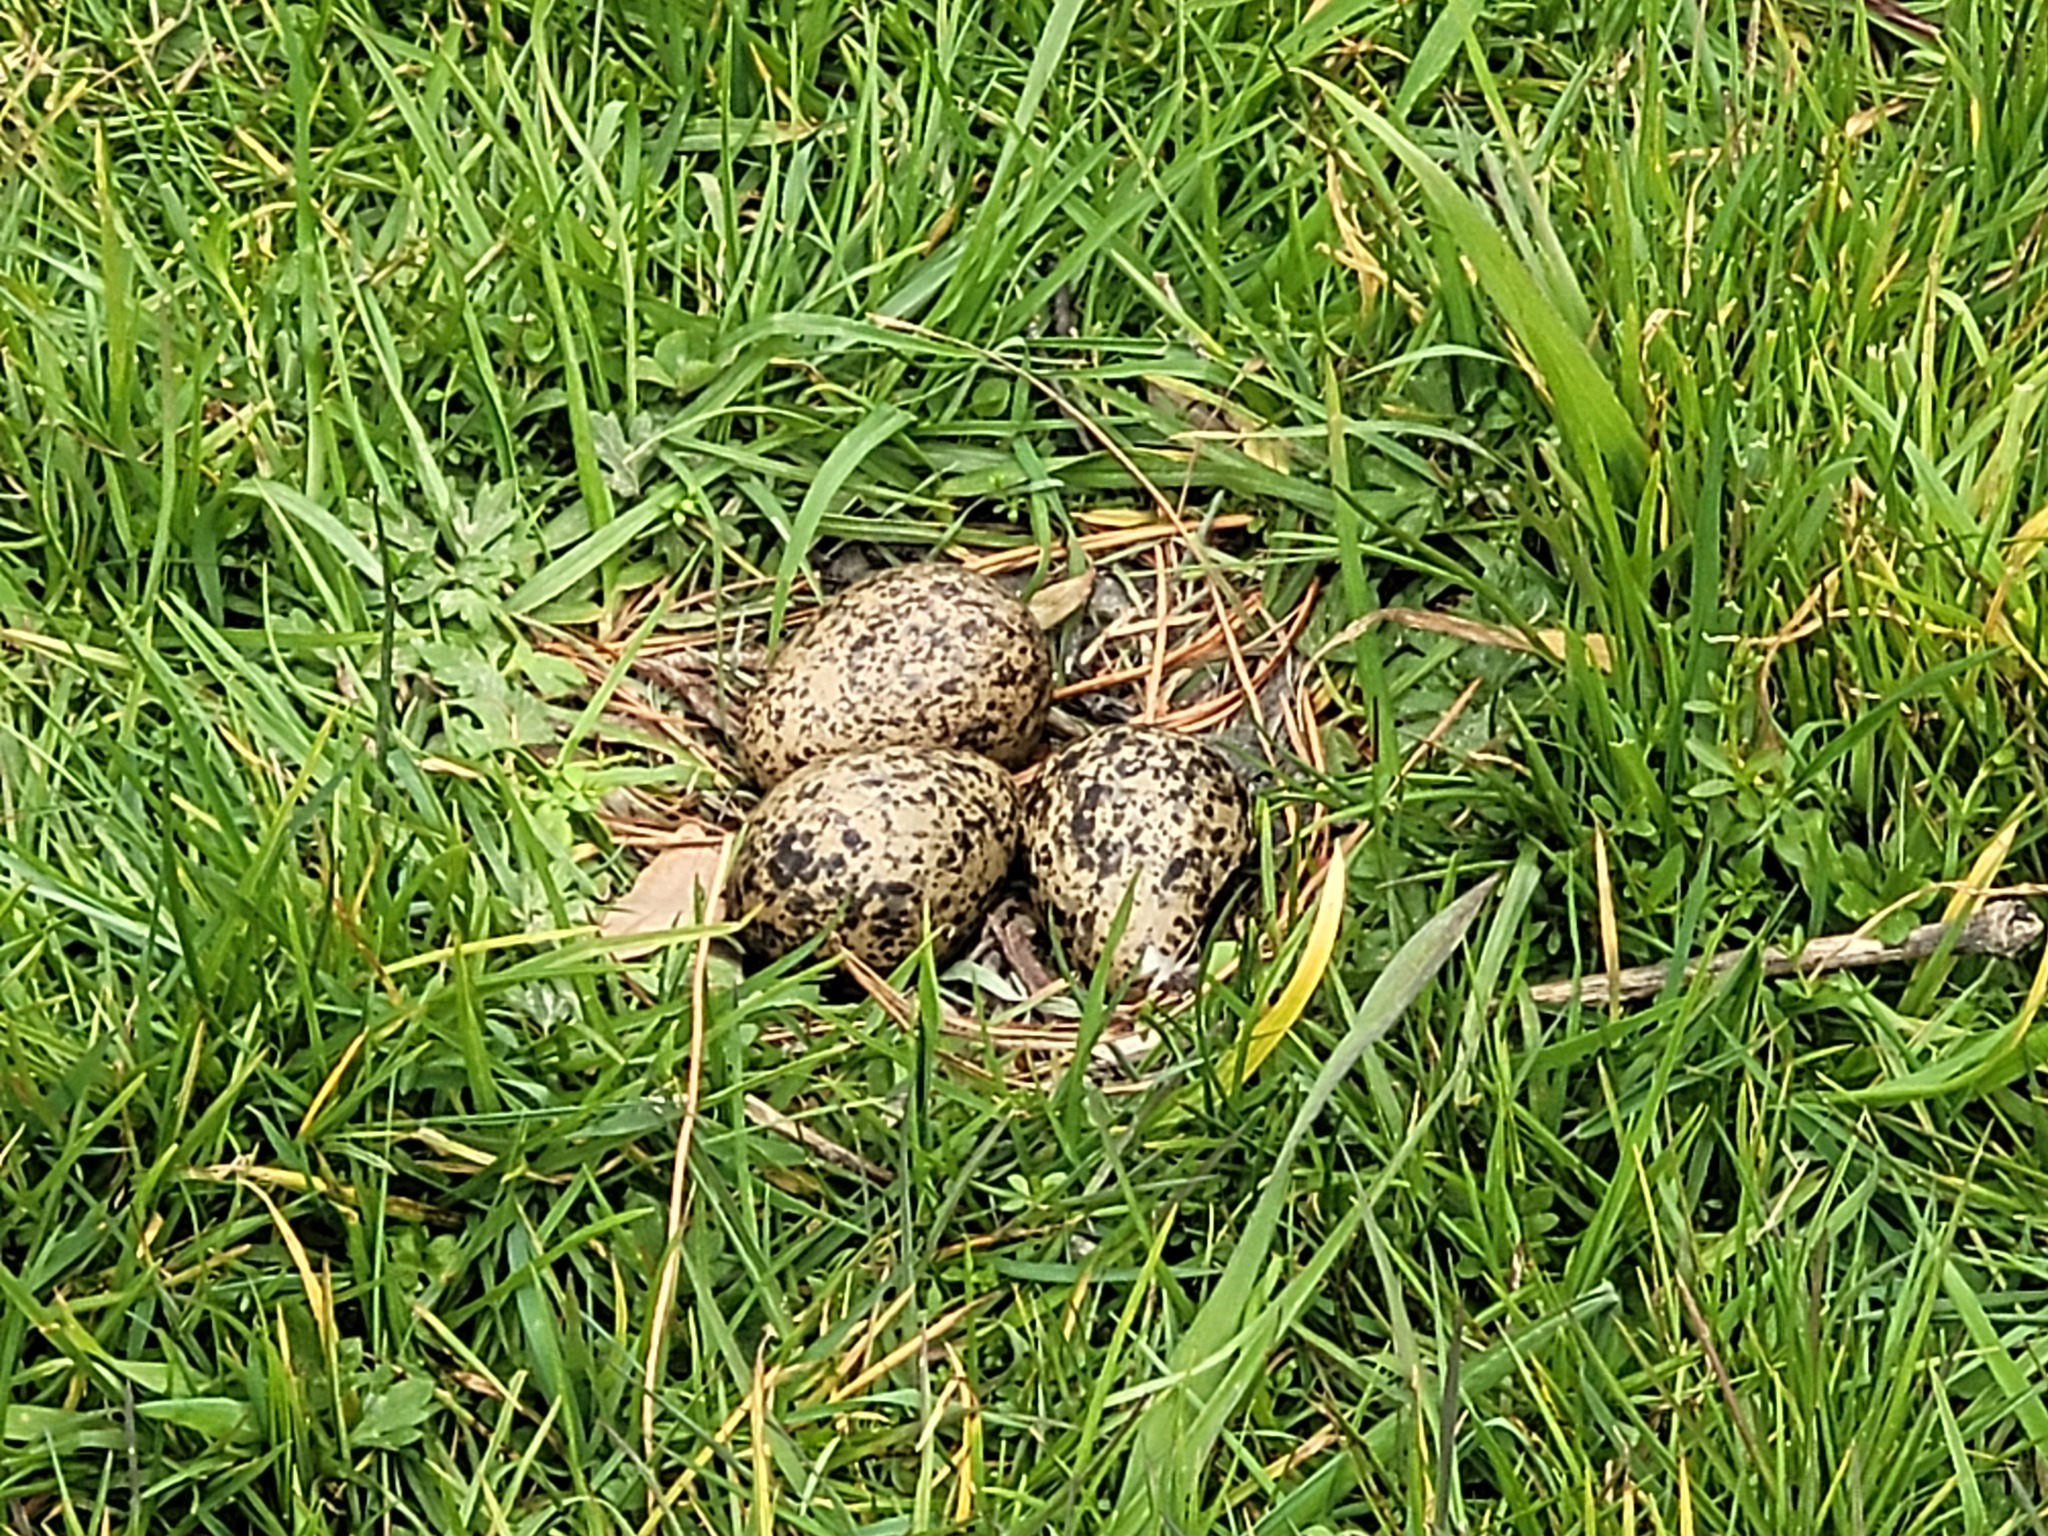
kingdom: Animalia
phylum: Chordata
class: Aves
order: Charadriiformes
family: Charadriidae
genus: Vanellus
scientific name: Vanellus miles
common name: Masked lapwing
